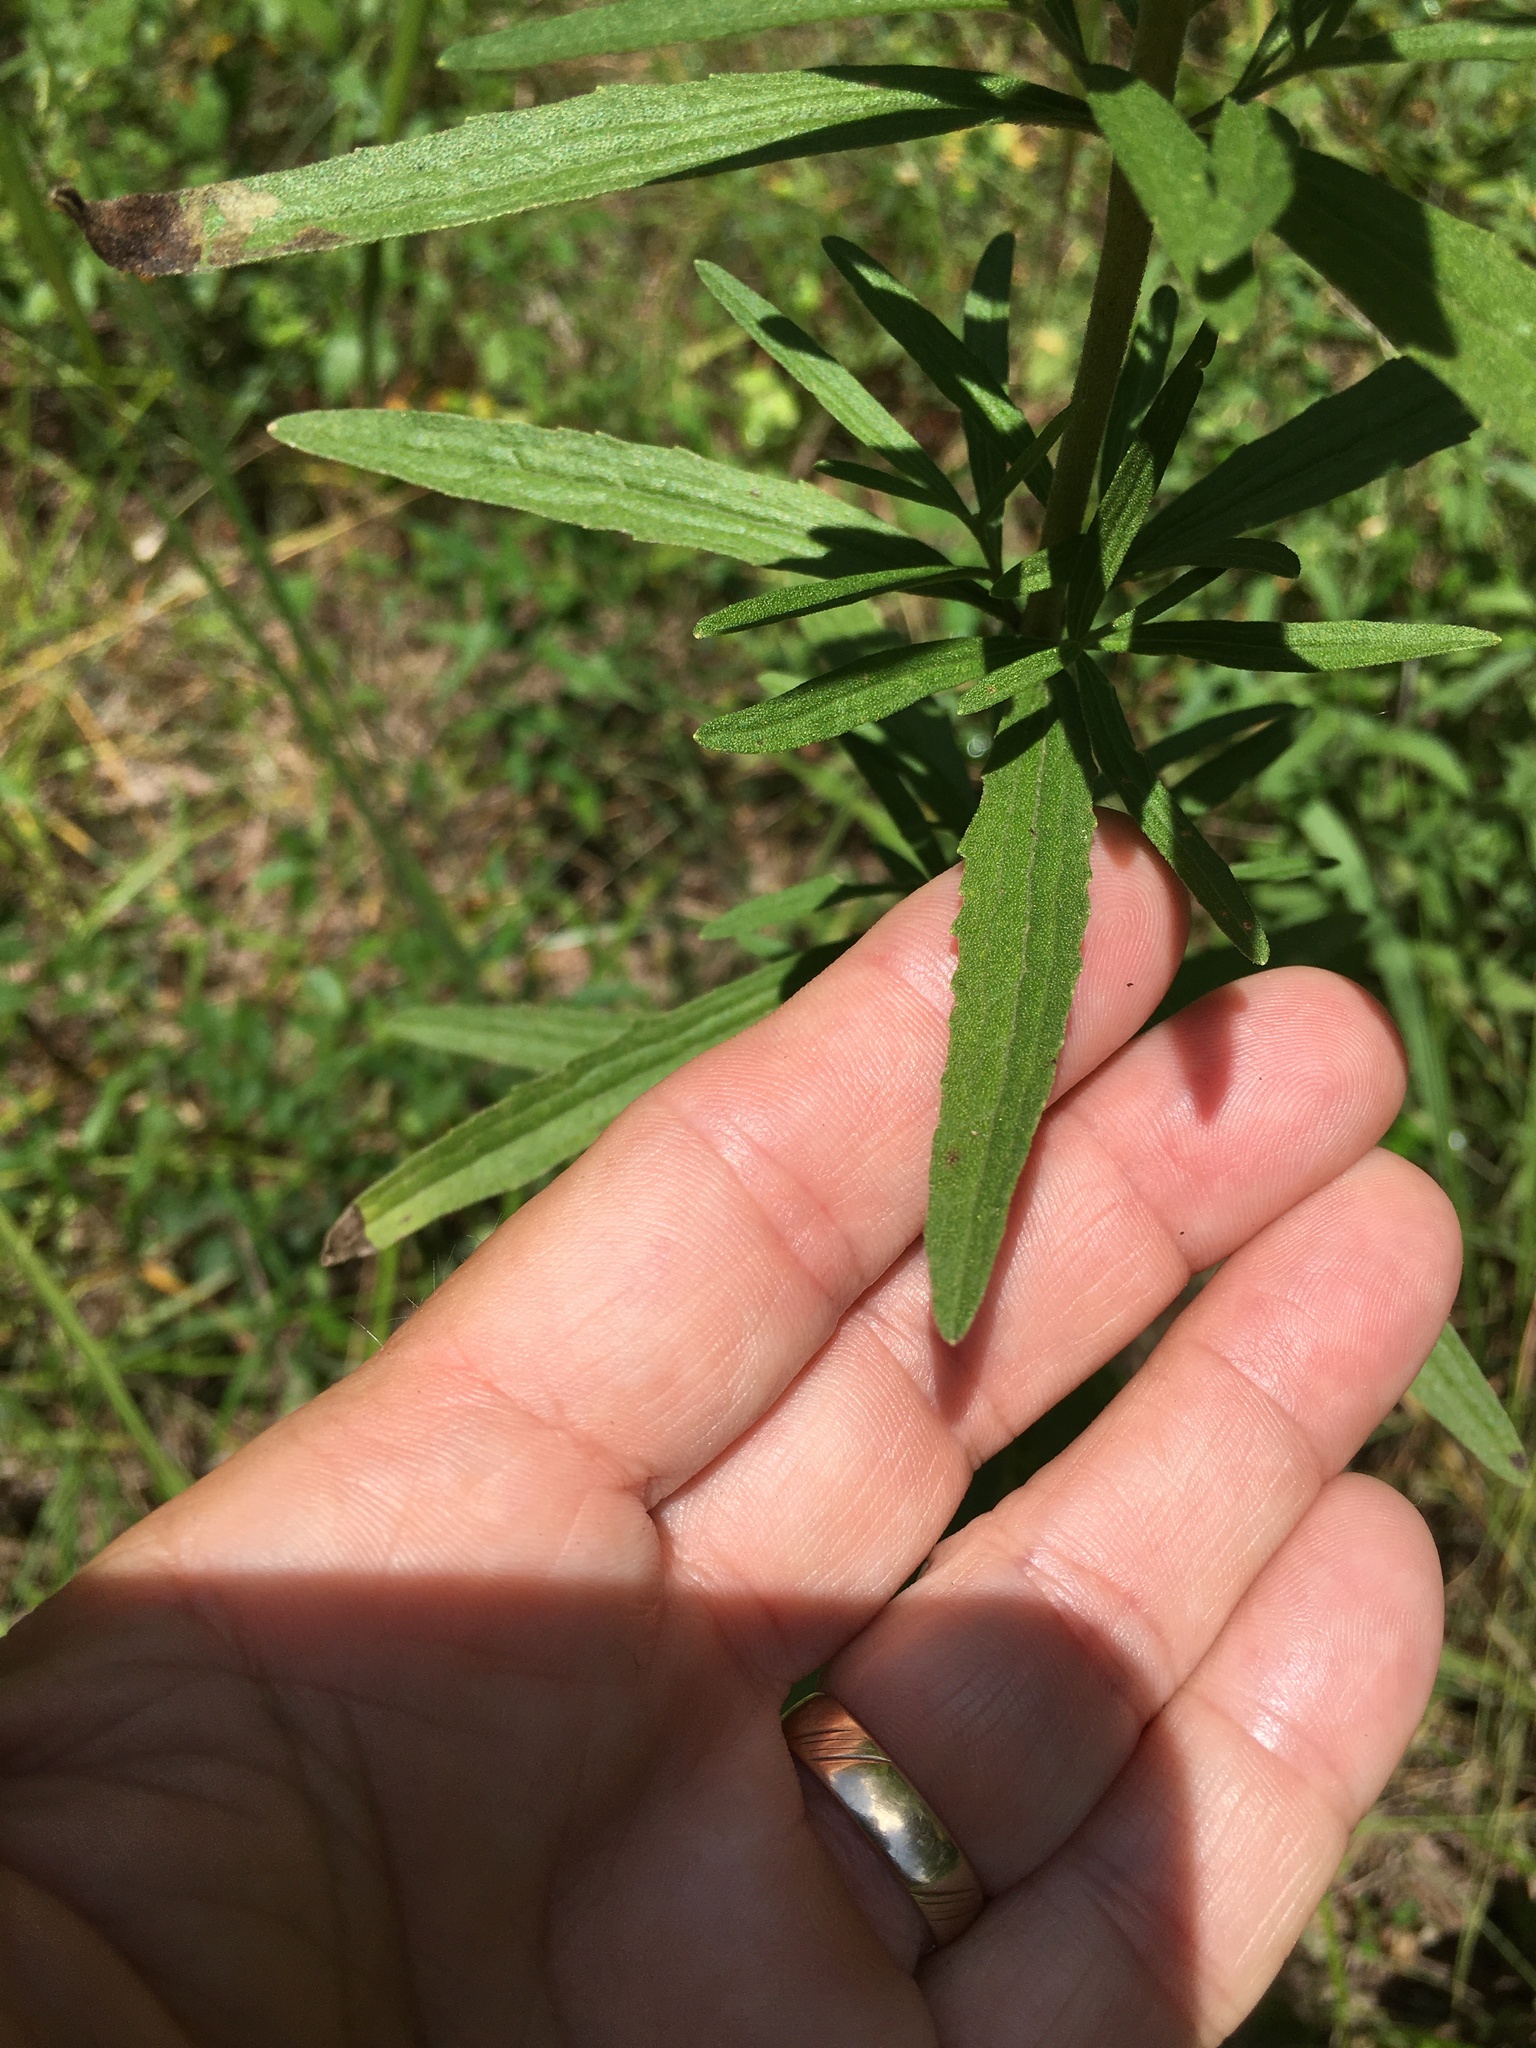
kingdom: Plantae
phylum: Tracheophyta
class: Magnoliopsida
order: Asterales
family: Asteraceae
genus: Eupatorium
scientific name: Eupatorium torreyanum
